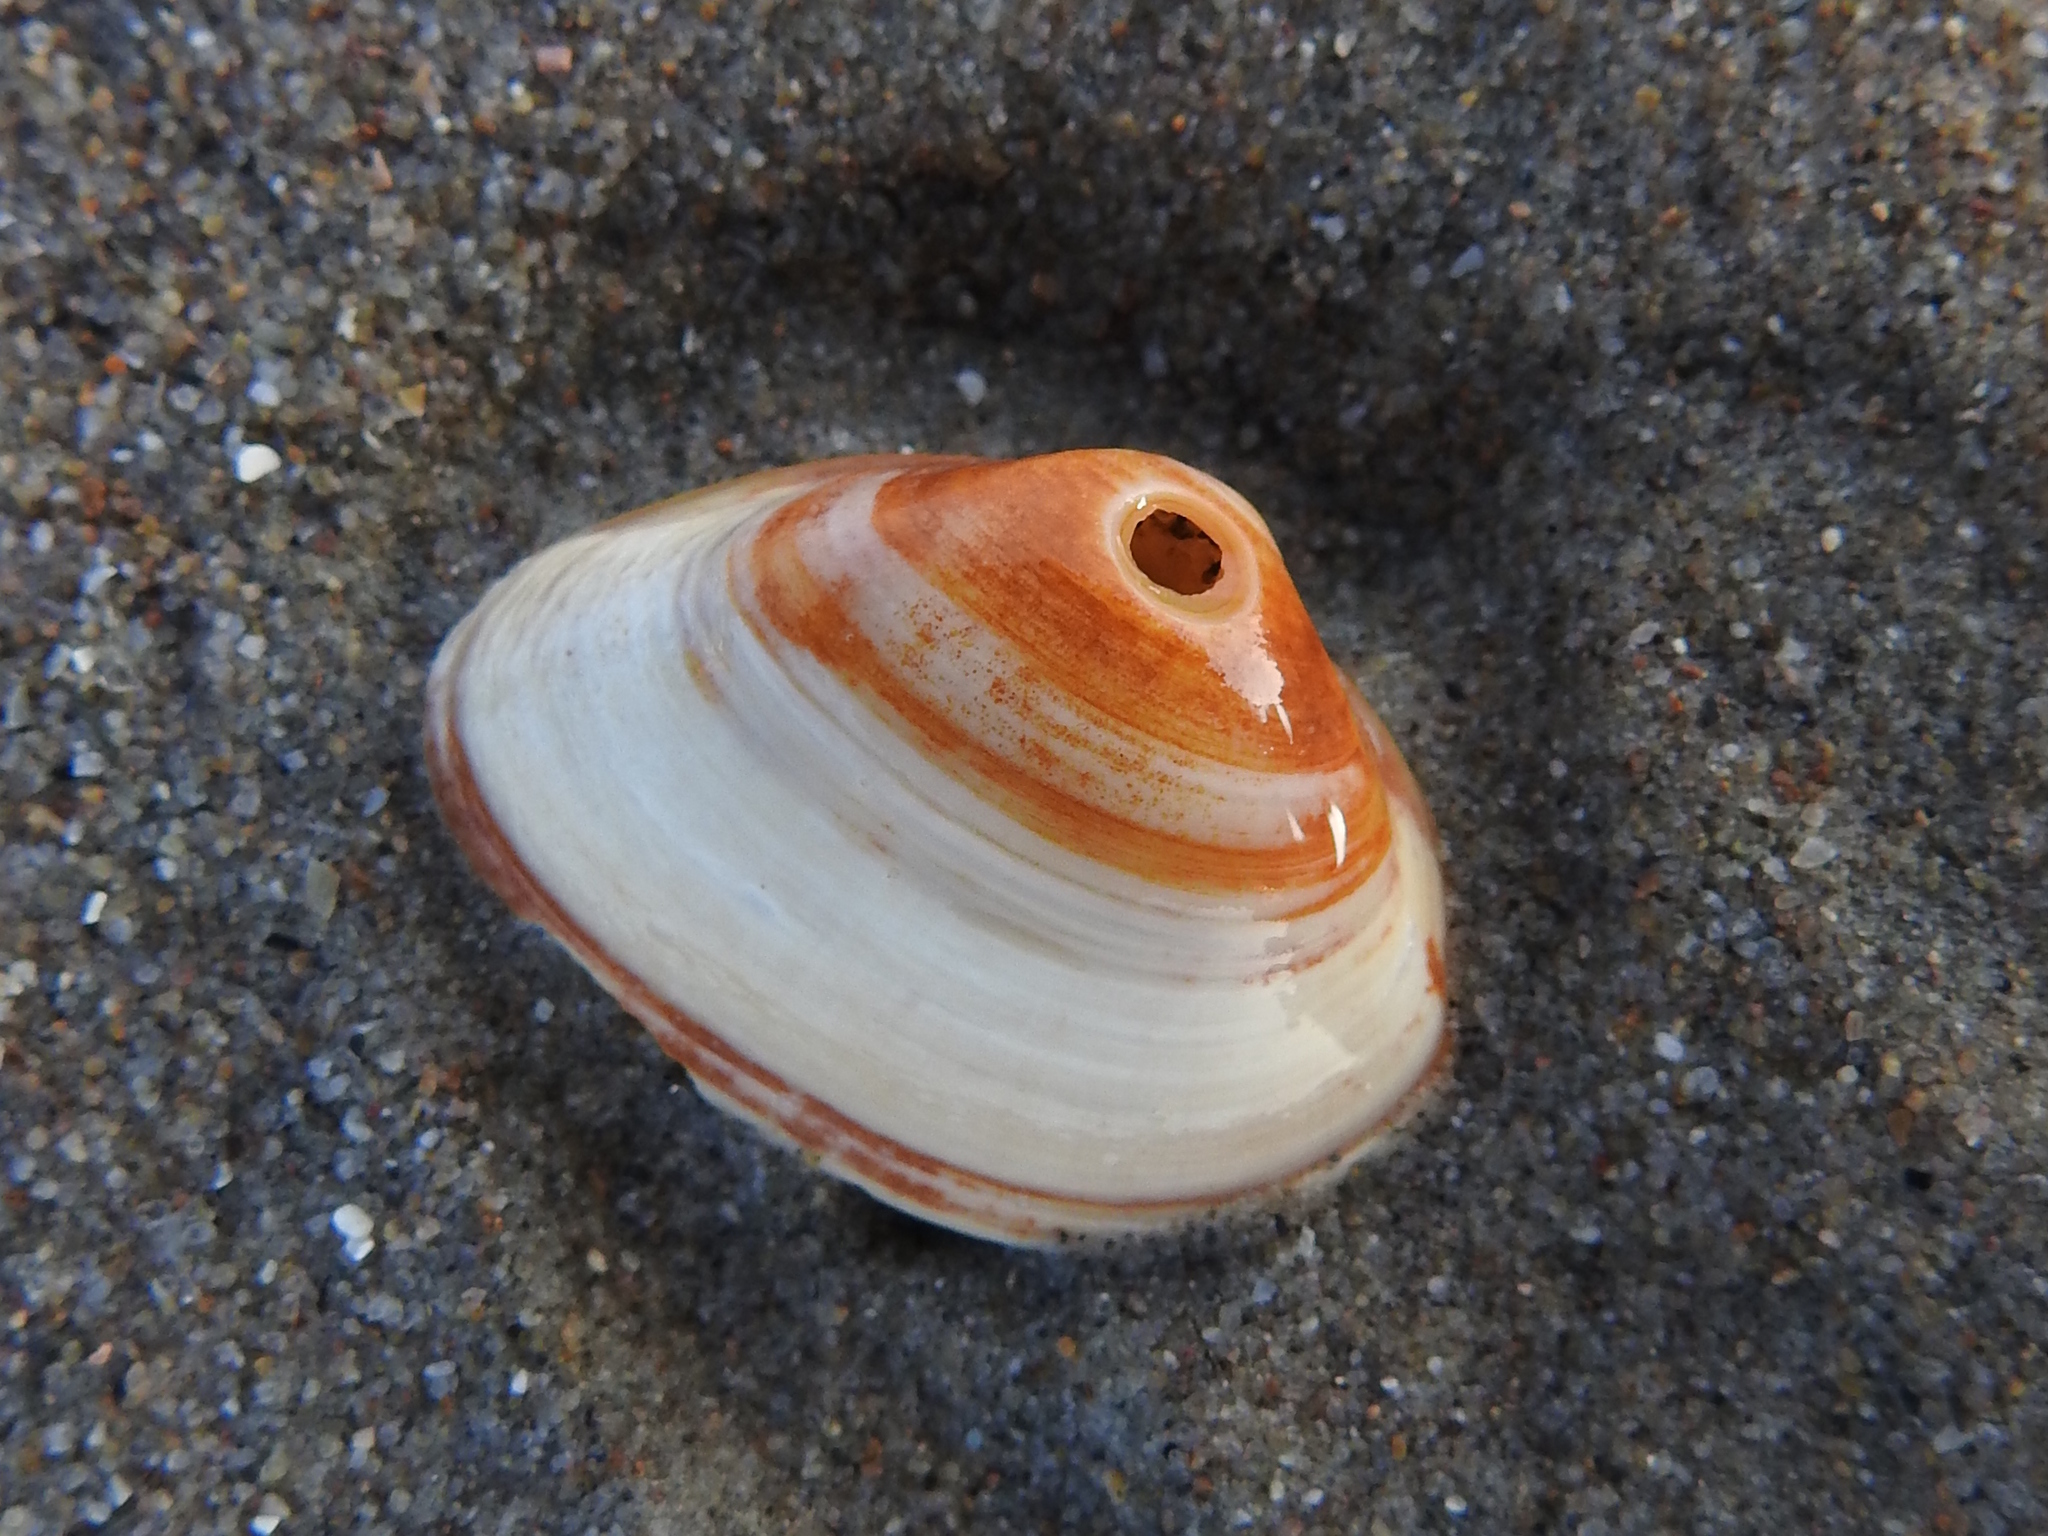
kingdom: Animalia
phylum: Mollusca
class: Bivalvia
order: Venerida
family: Mactridae
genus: Spisula
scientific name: Spisula subtruncata
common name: Cut trough shell
